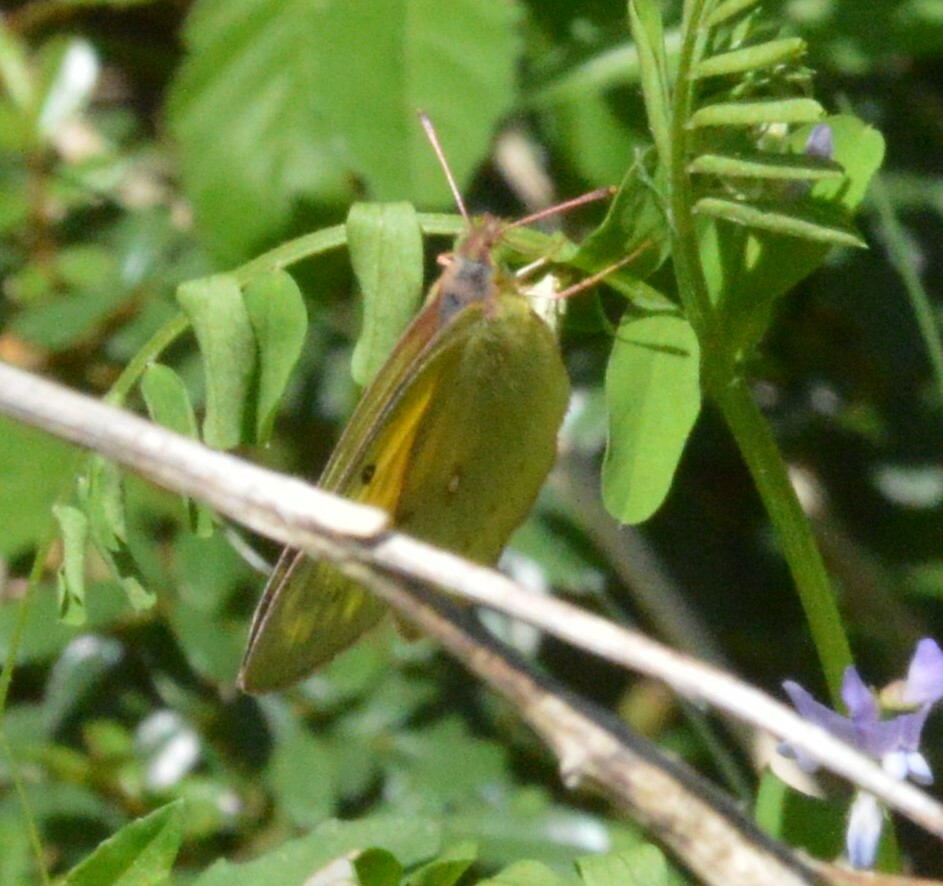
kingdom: Animalia
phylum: Arthropoda
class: Insecta
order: Lepidoptera
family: Pieridae
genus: Colias
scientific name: Colias eurytheme
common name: Alfalfa butterfly
